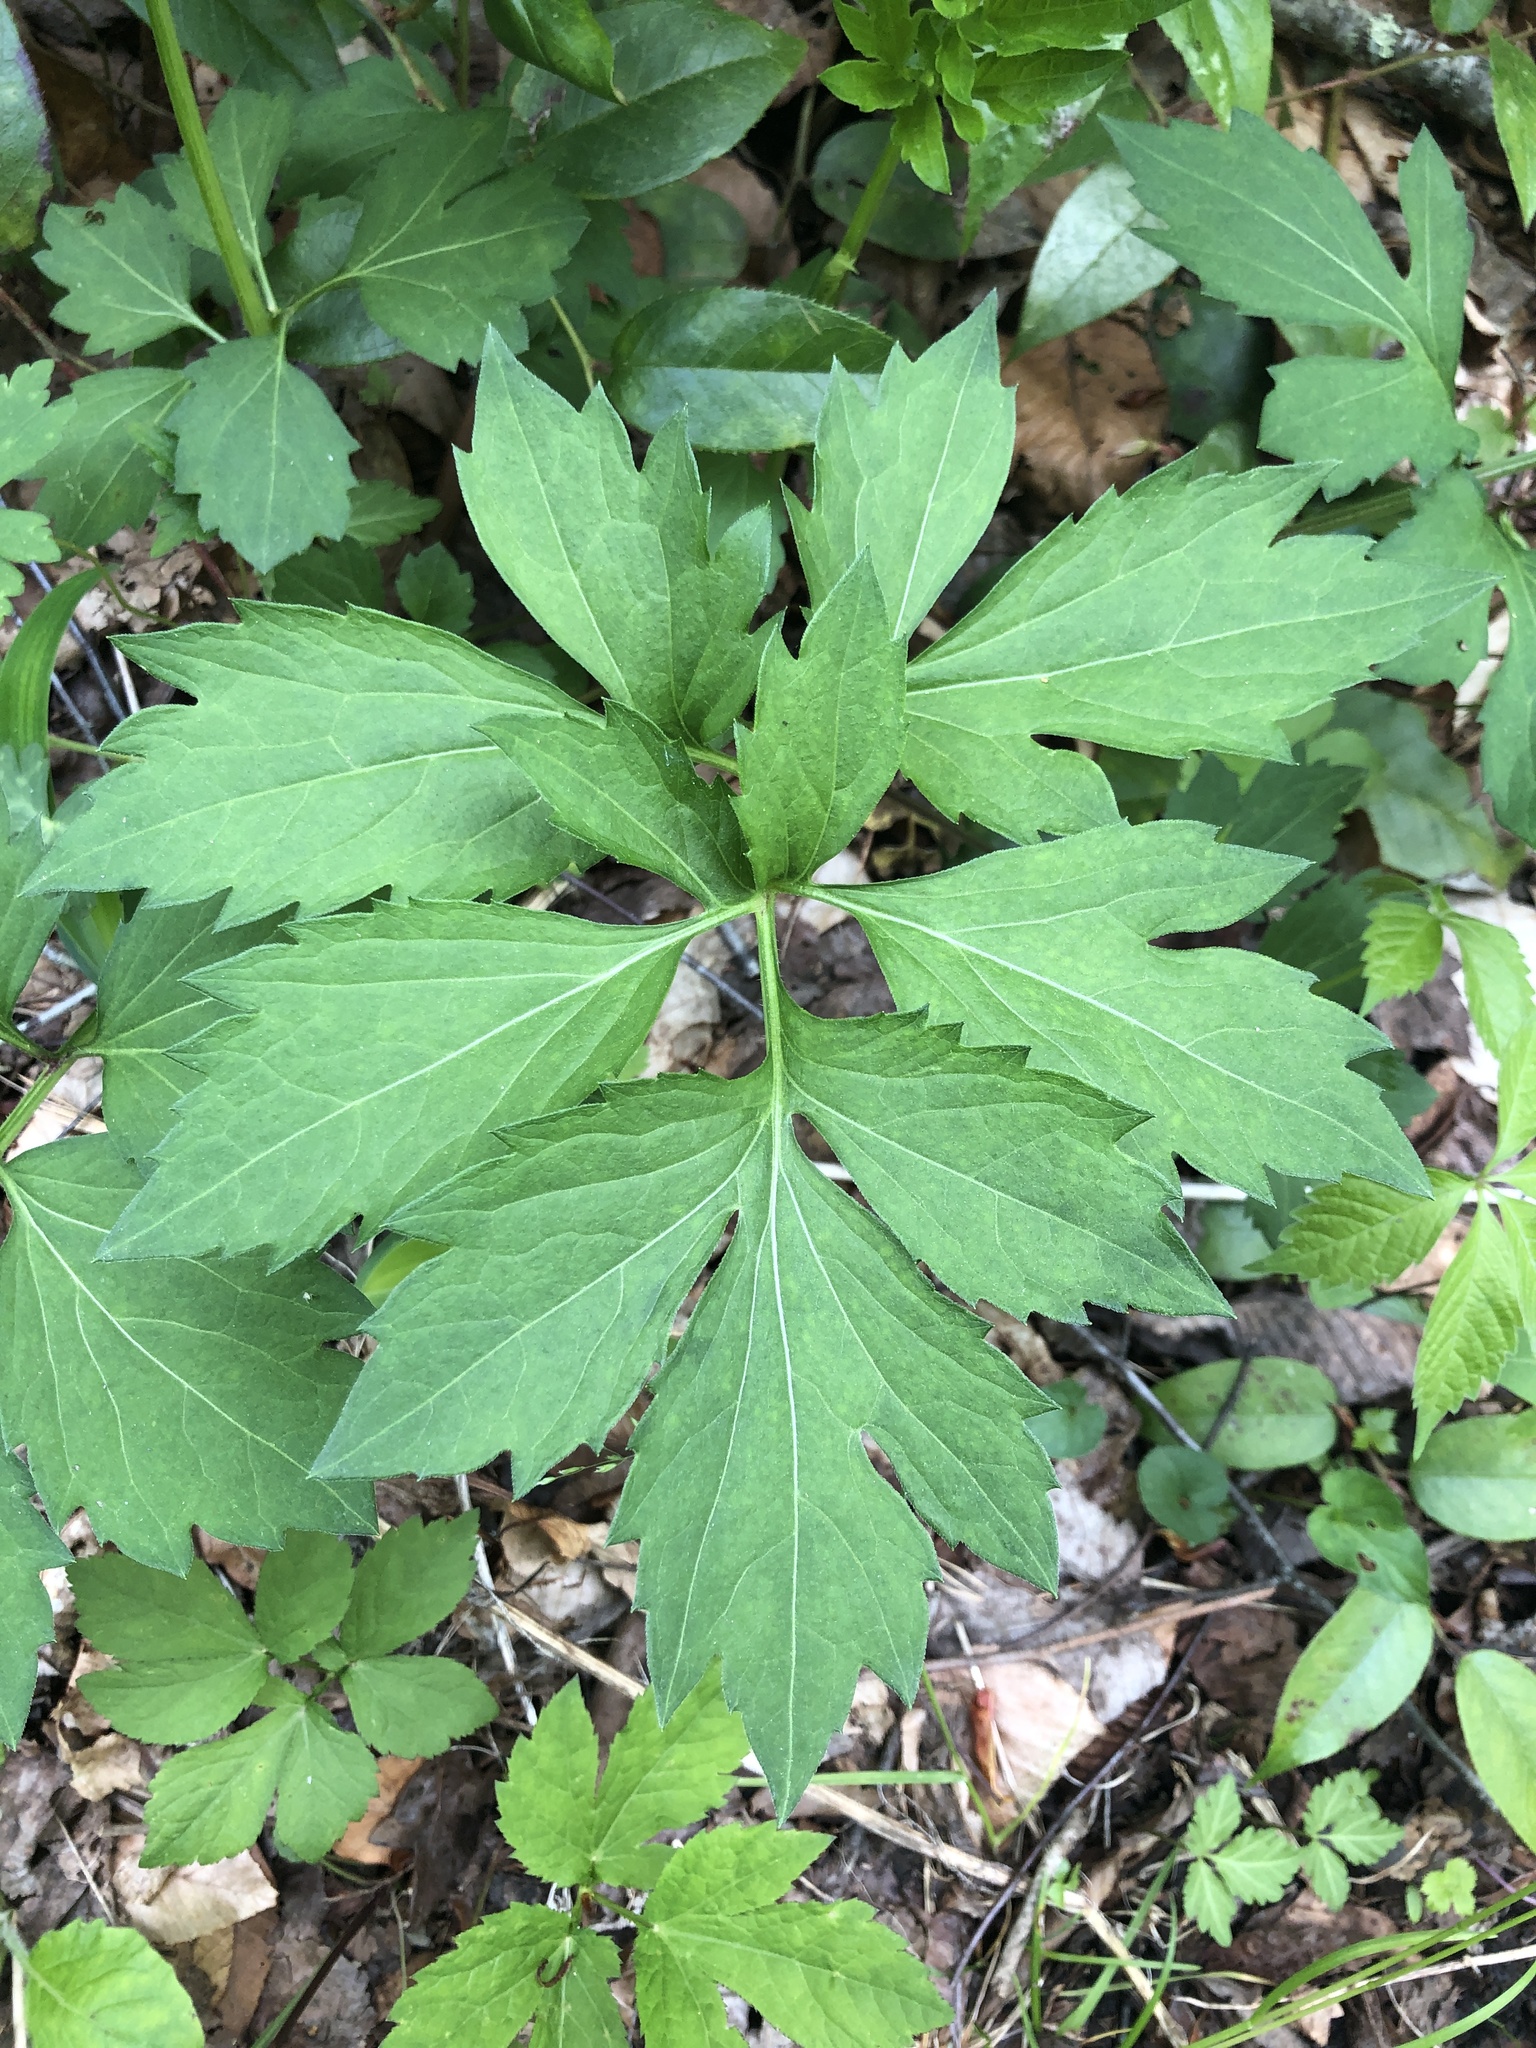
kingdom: Plantae
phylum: Tracheophyta
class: Magnoliopsida
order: Asterales
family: Asteraceae
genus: Rudbeckia
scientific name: Rudbeckia laciniata
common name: Coneflower
